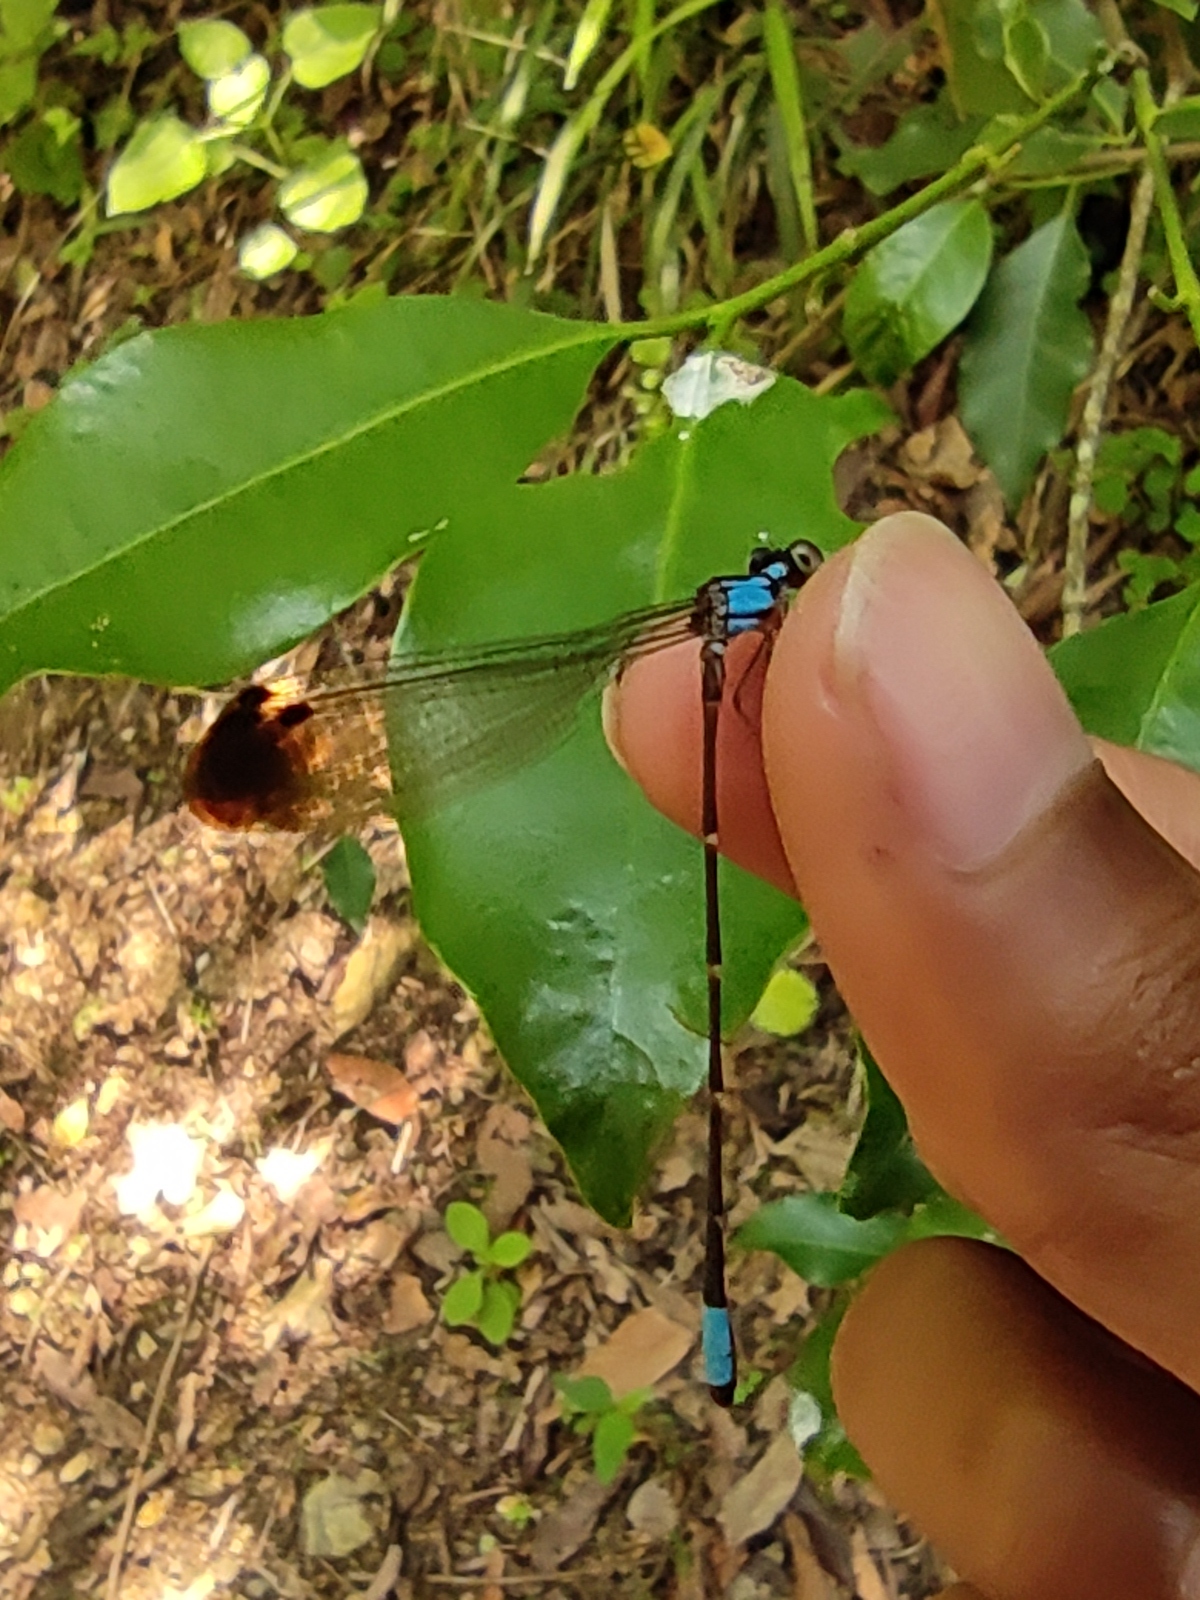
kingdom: Animalia
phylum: Arthropoda
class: Insecta
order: Odonata
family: Platystictidae
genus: Palaemnema
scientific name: Palaemnema paulitoyaca
